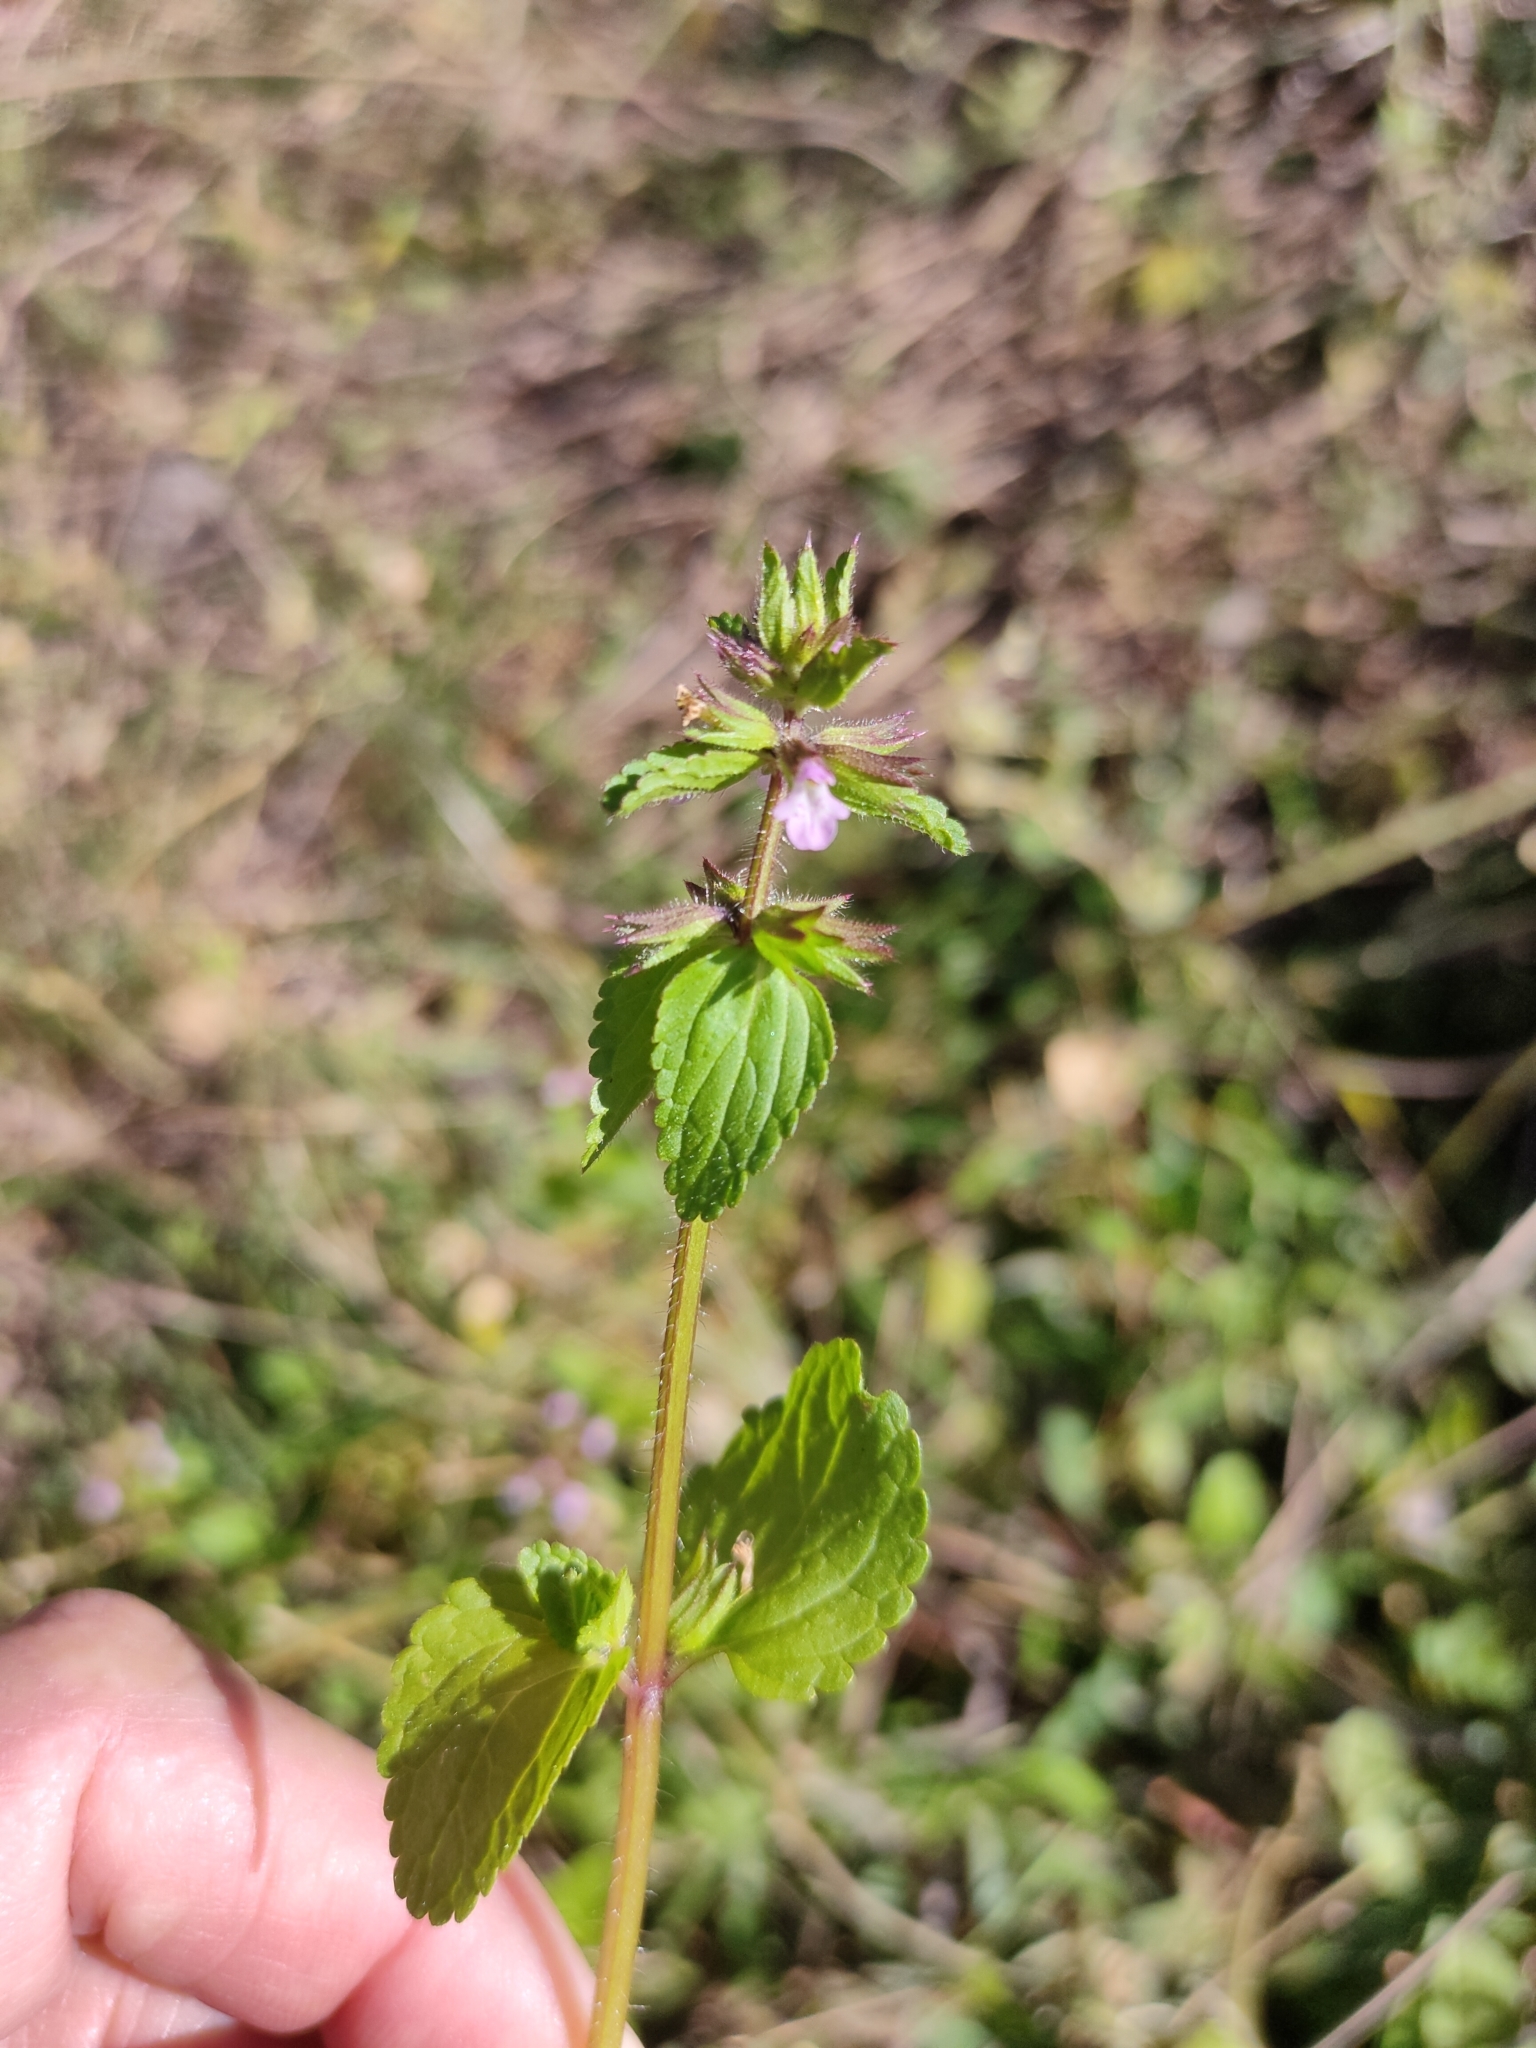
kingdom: Plantae
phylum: Tracheophyta
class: Magnoliopsida
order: Lamiales
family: Lamiaceae
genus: Stachys
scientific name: Stachys arvensis
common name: Field woundwort
